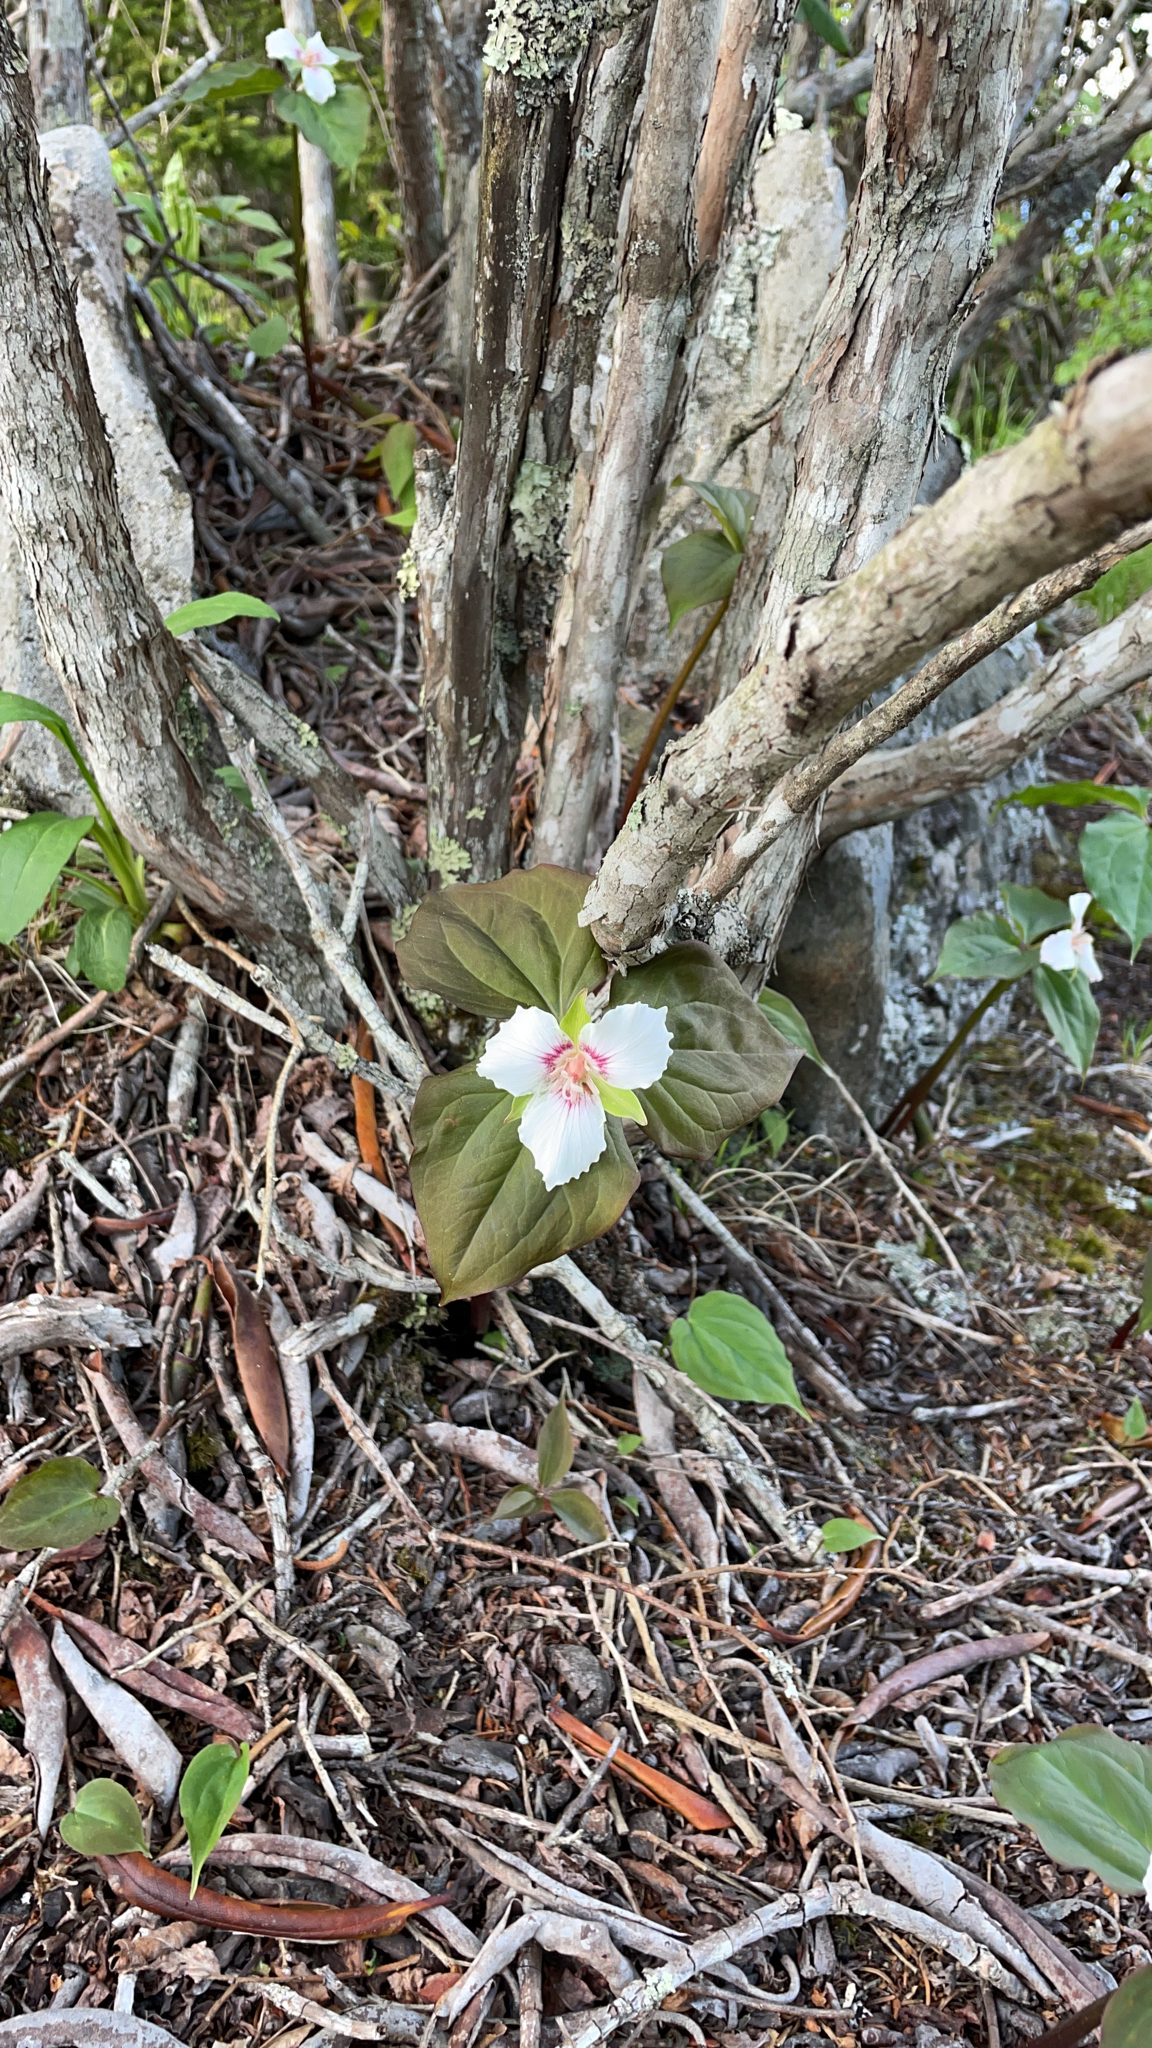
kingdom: Plantae
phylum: Tracheophyta
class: Liliopsida
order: Liliales
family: Melanthiaceae
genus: Trillium
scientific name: Trillium undulatum
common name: Paint trillium
